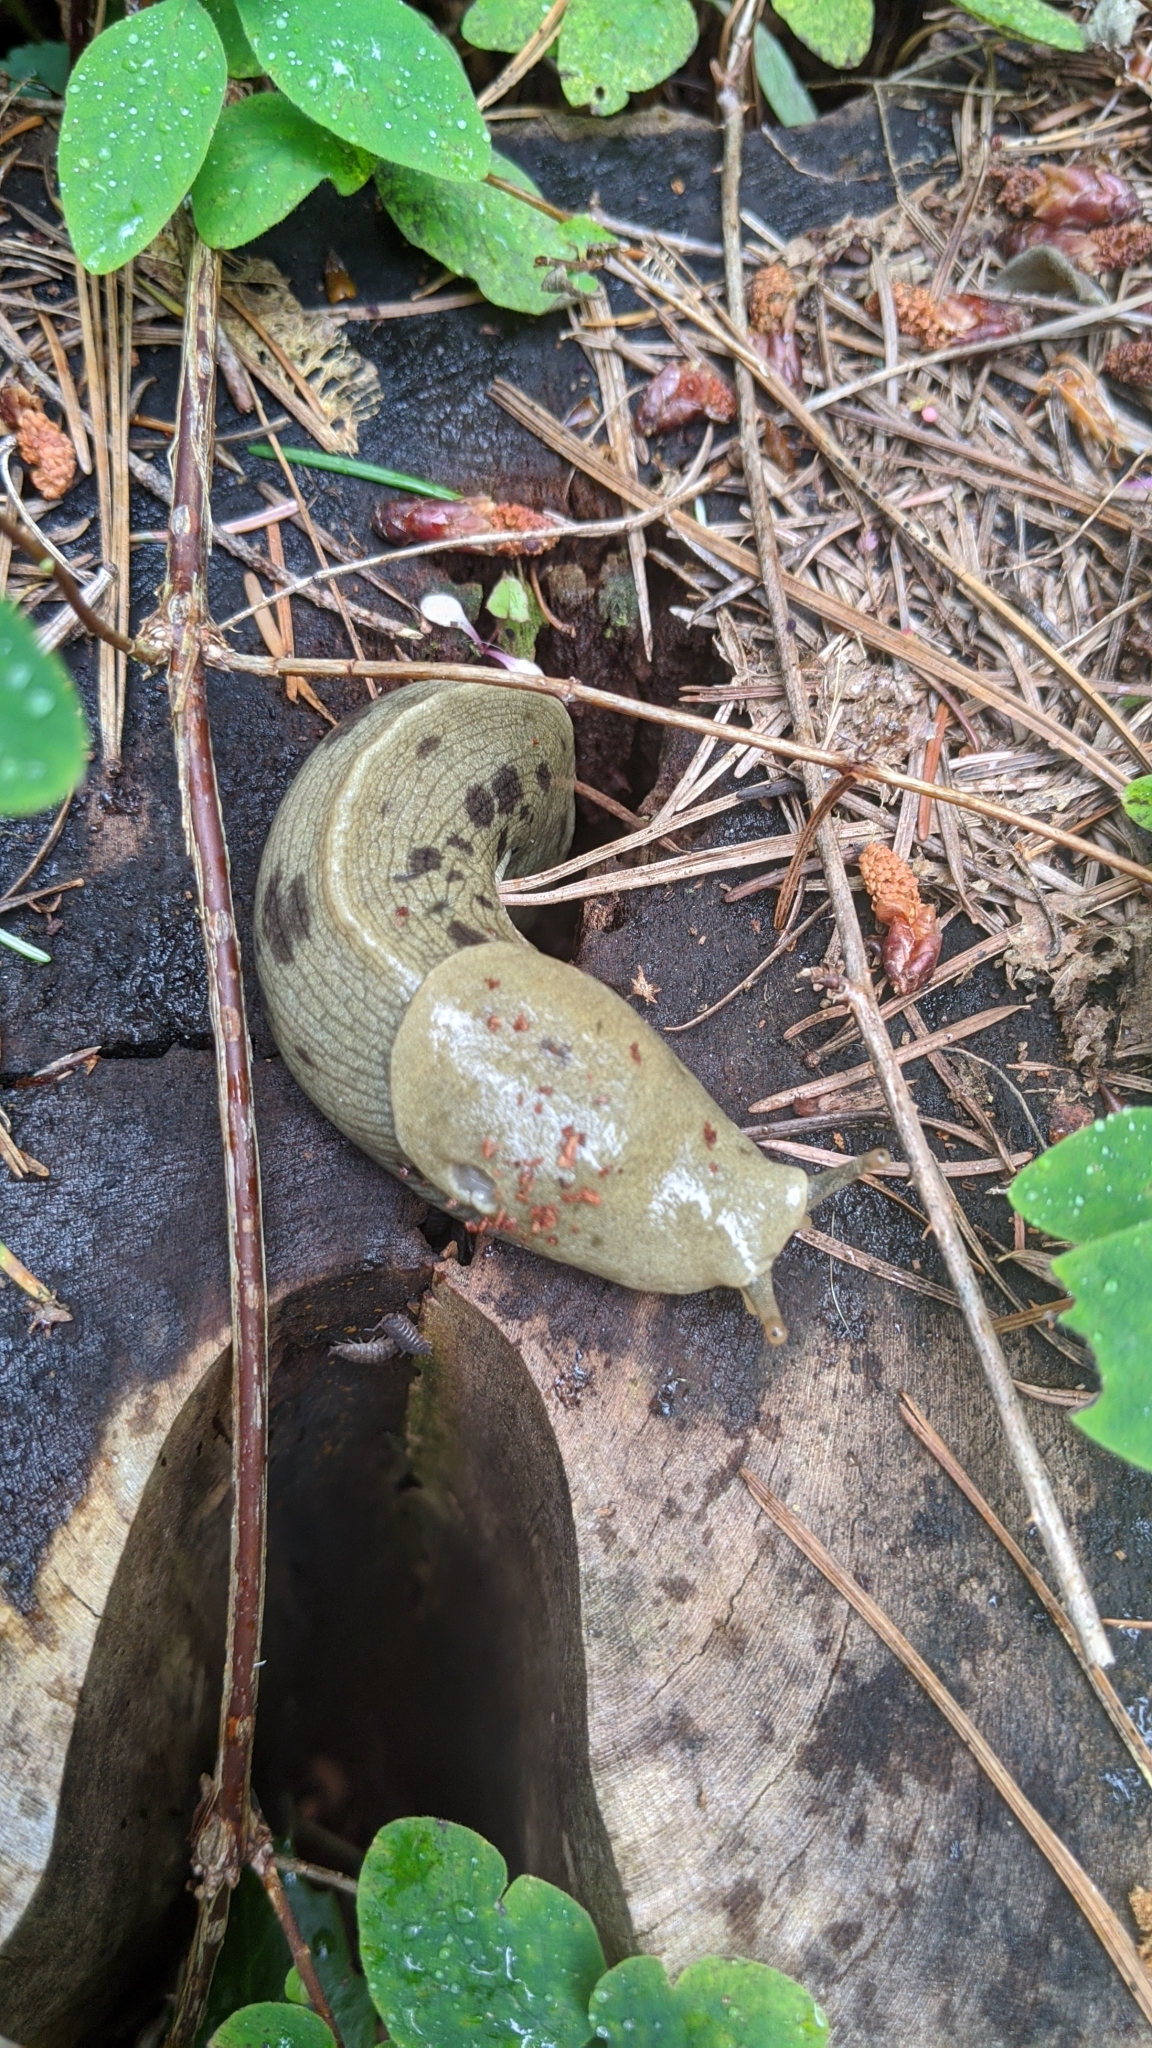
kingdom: Animalia
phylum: Mollusca
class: Gastropoda
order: Stylommatophora
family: Ariolimacidae
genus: Ariolimax
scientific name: Ariolimax columbianus
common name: Pacific banana slug
